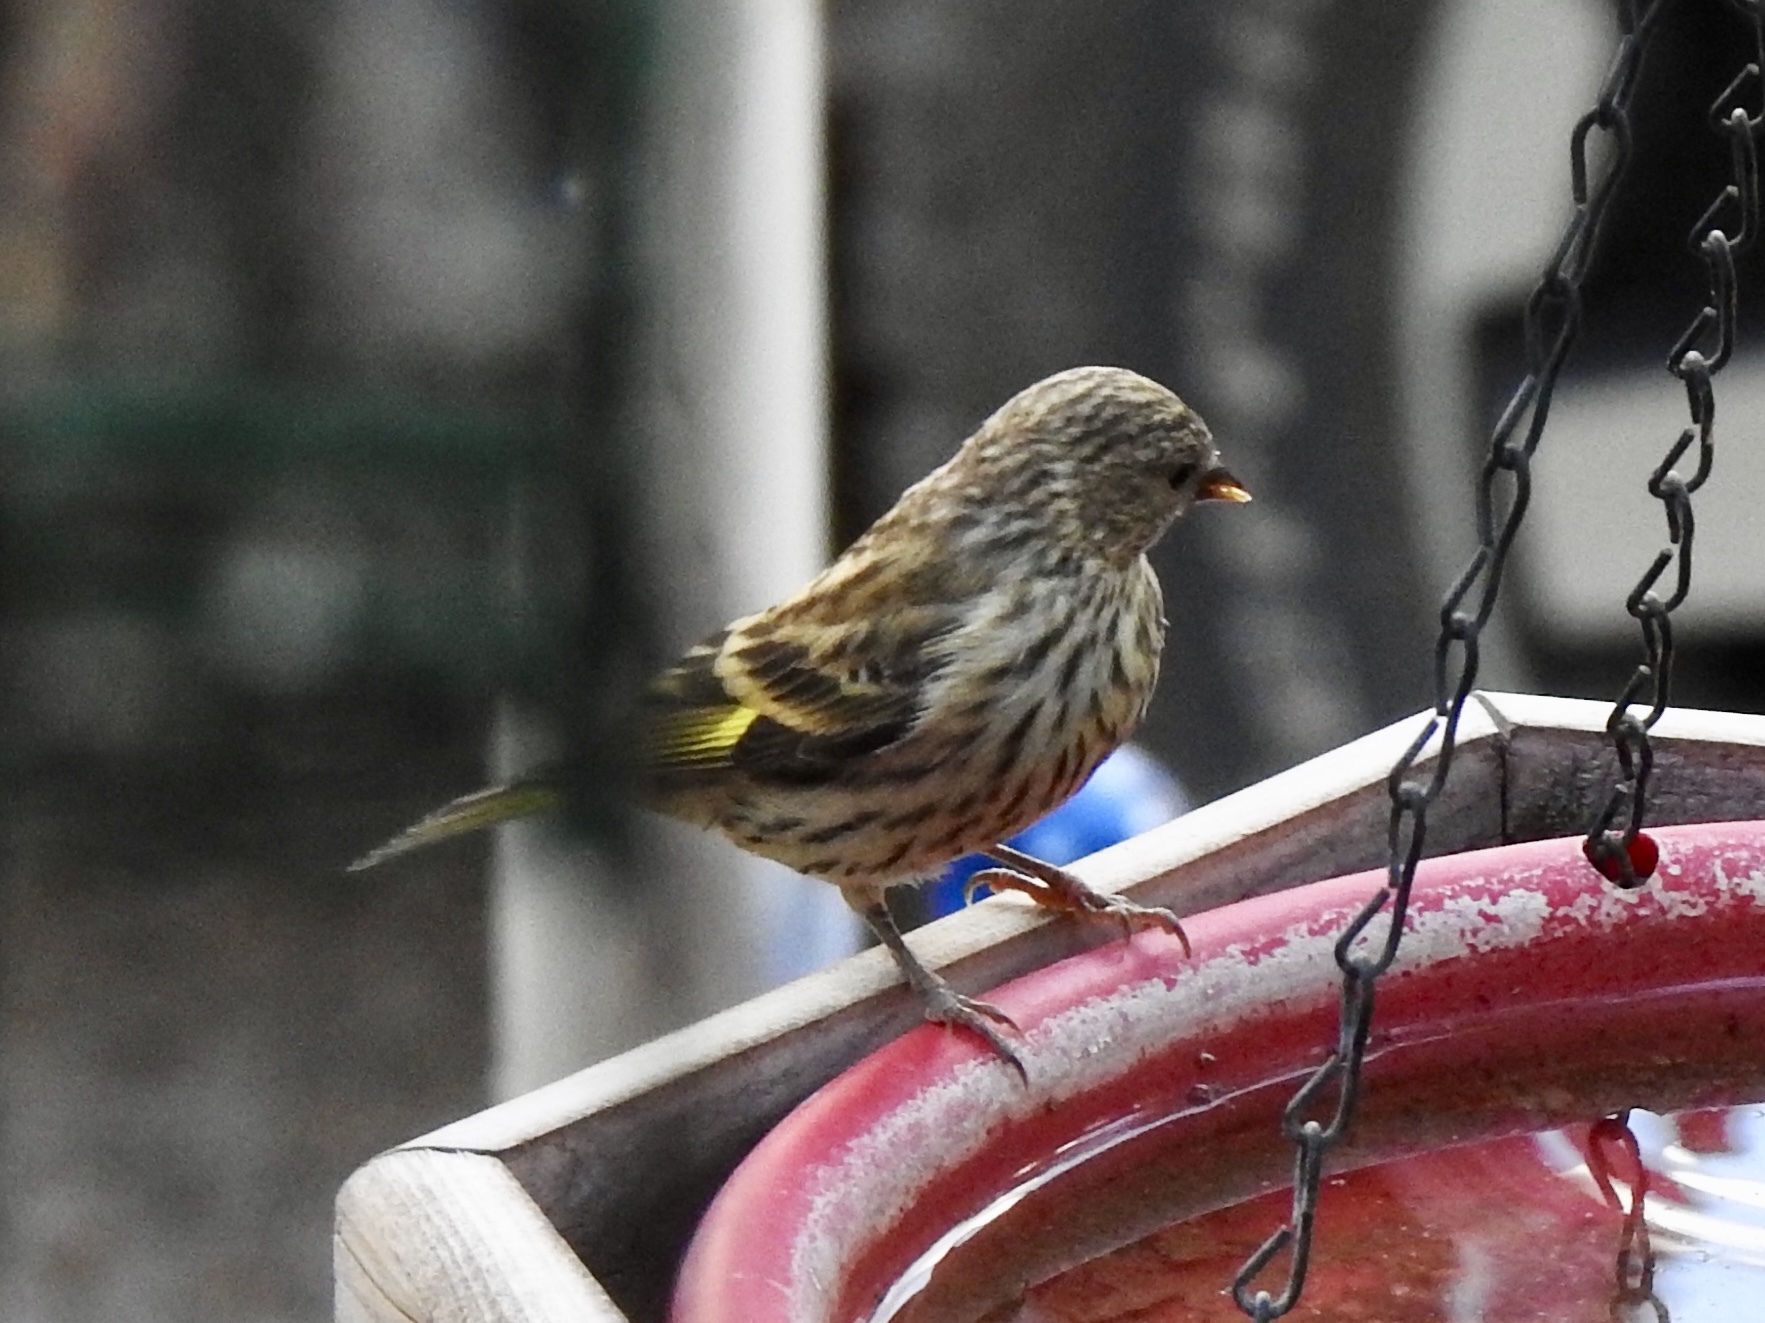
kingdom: Animalia
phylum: Chordata
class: Aves
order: Passeriformes
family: Fringillidae
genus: Spinus
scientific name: Spinus pinus
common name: Pine siskin
